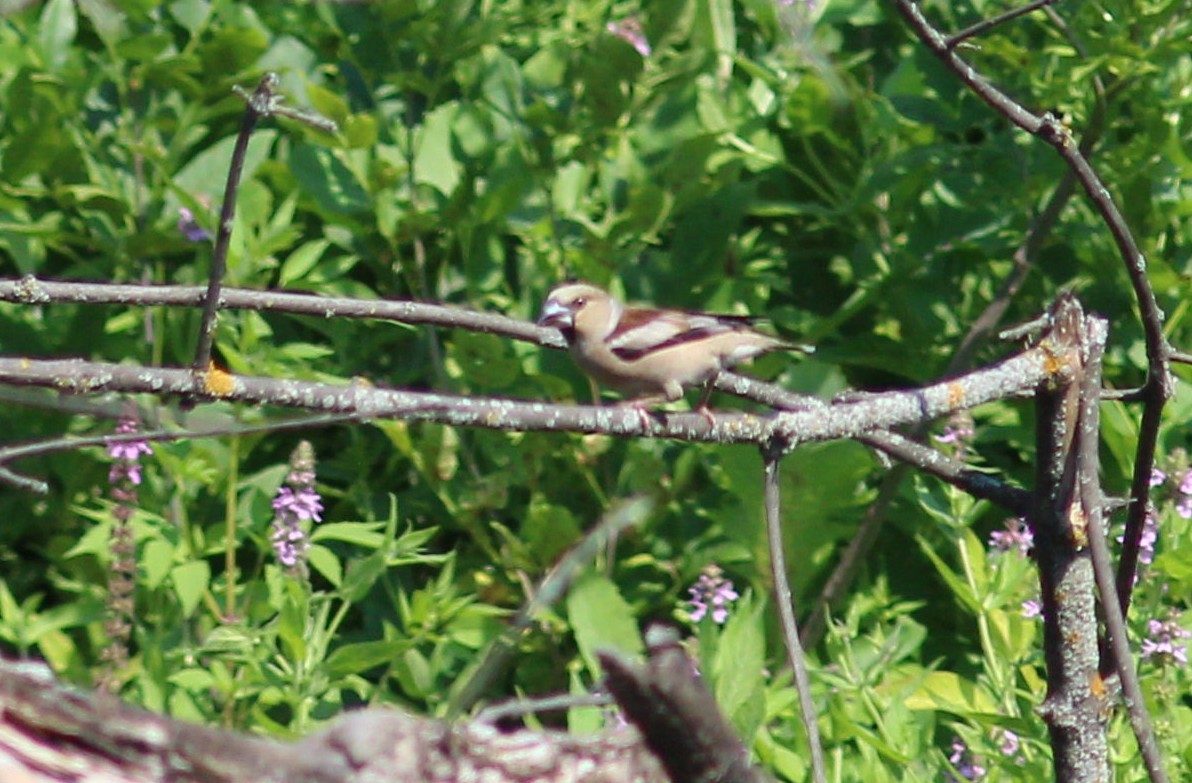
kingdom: Animalia
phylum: Chordata
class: Aves
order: Passeriformes
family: Fringillidae
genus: Coccothraustes
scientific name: Coccothraustes coccothraustes
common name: Hawfinch
